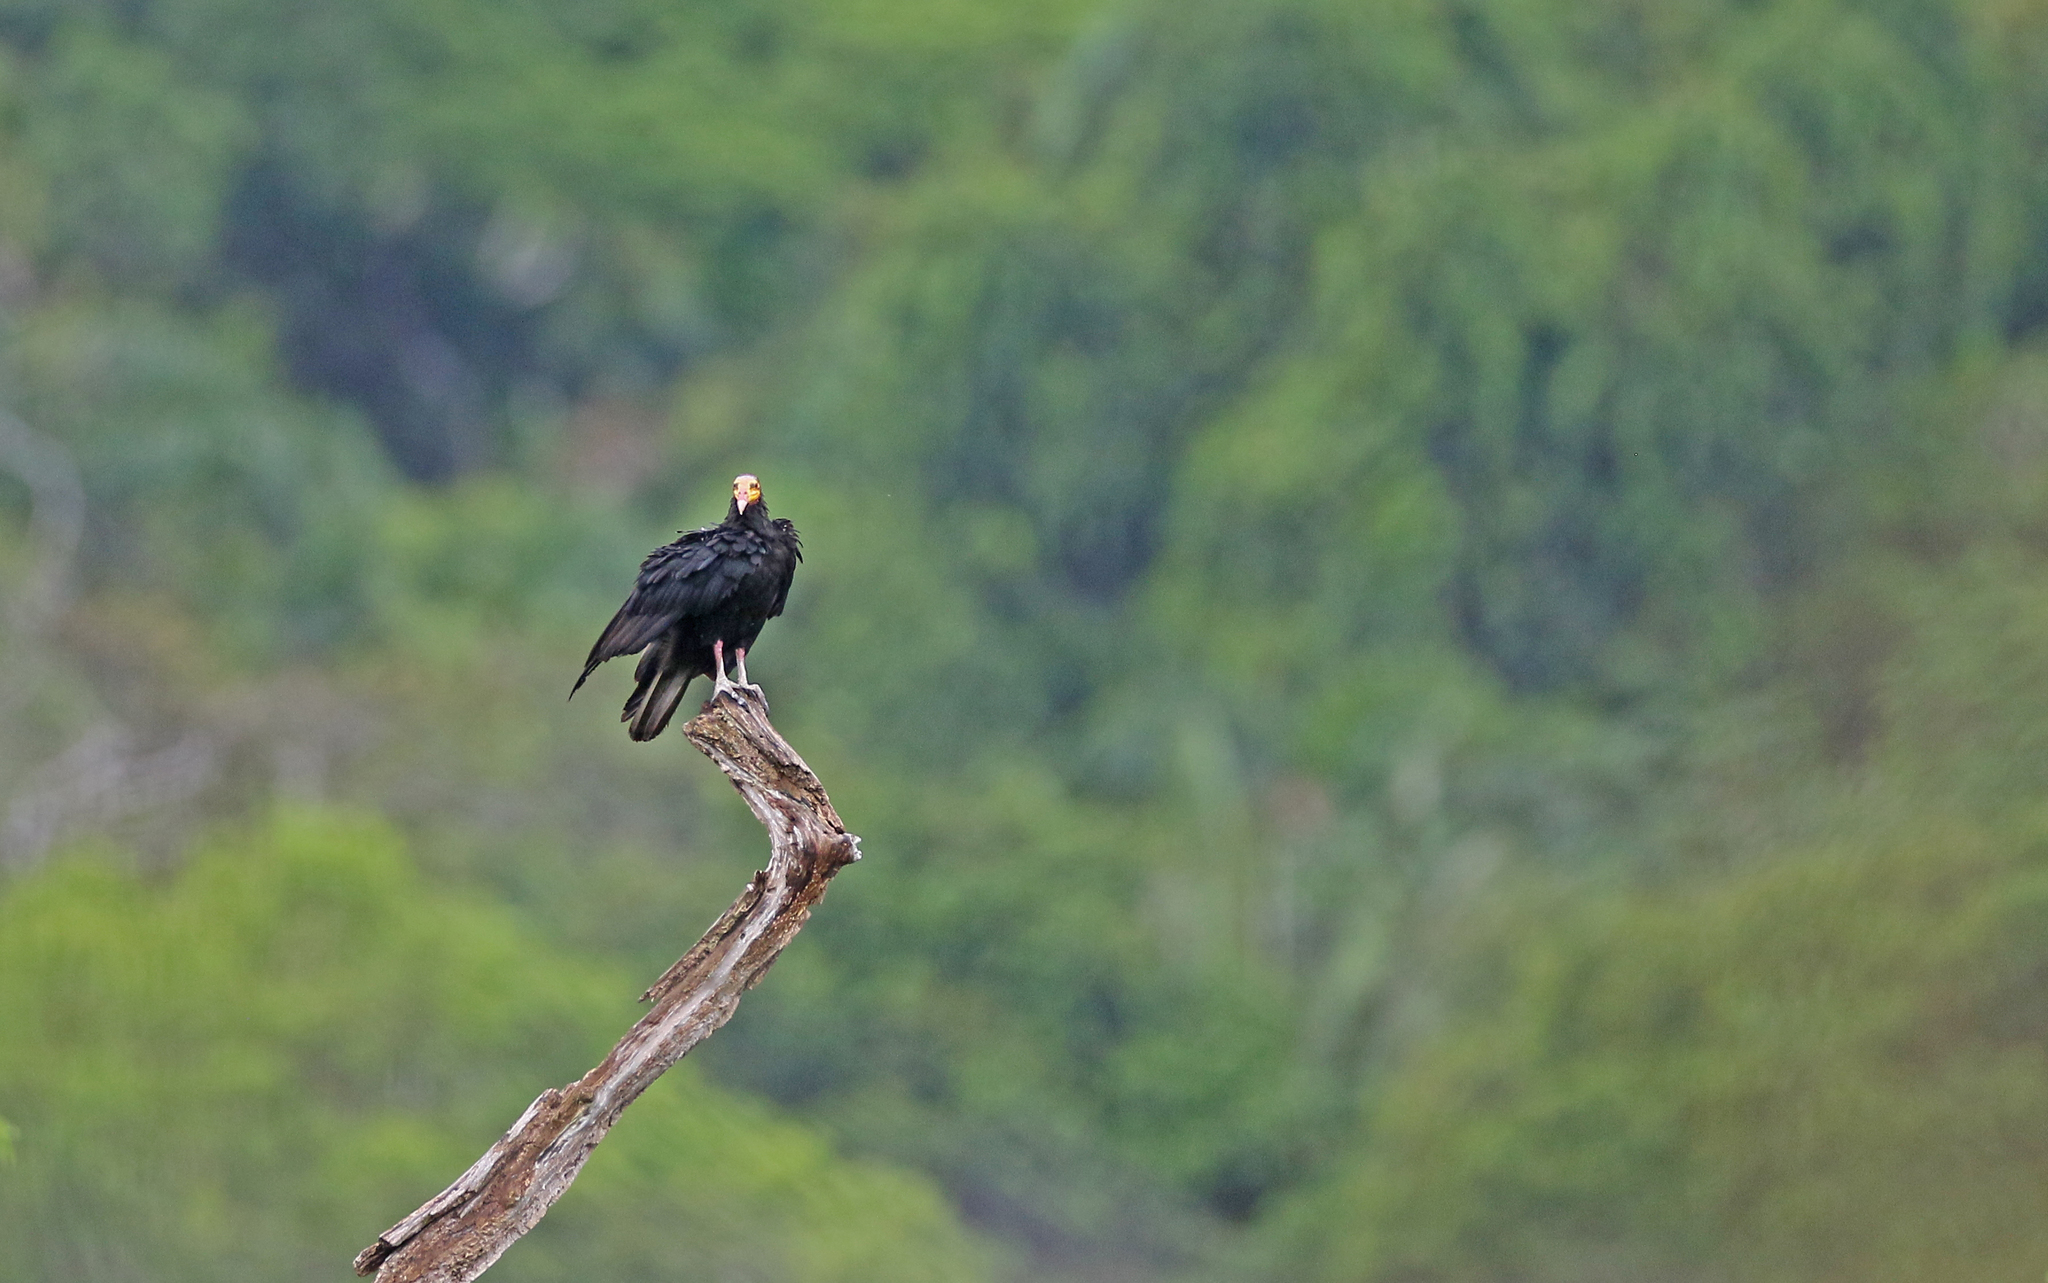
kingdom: Animalia
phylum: Chordata
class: Aves
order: Accipitriformes
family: Cathartidae
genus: Cathartes
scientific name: Cathartes melambrotus
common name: Greater yellow-headed vulture
